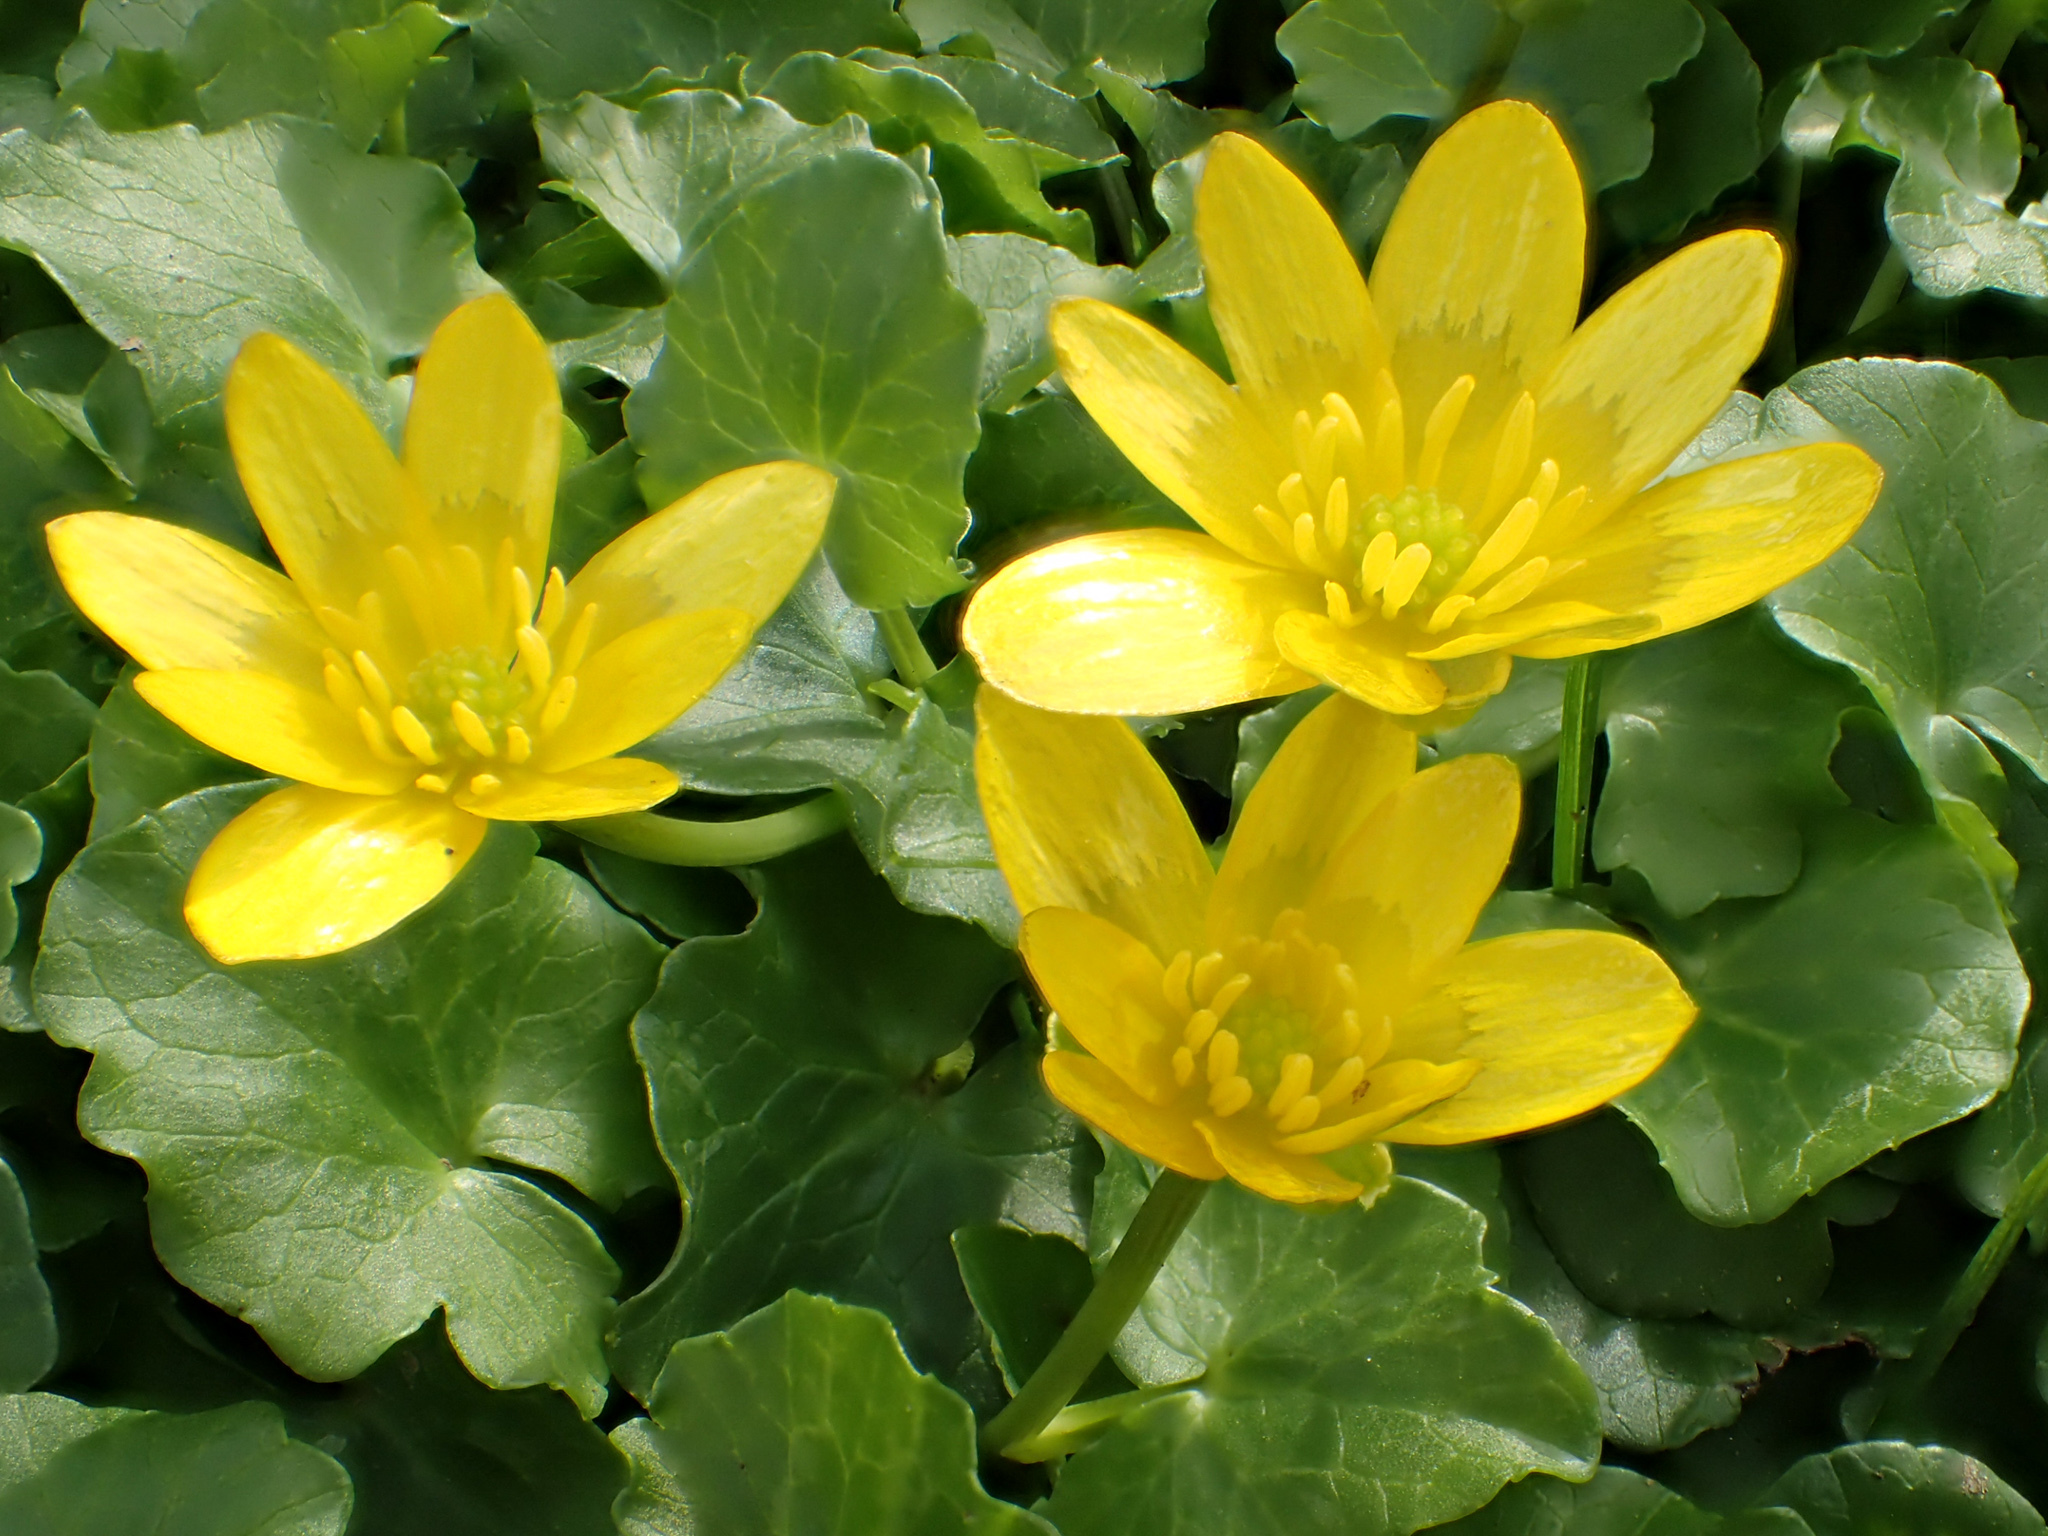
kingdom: Plantae
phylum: Tracheophyta
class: Magnoliopsida
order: Ranunculales
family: Ranunculaceae
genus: Ficaria
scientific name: Ficaria verna
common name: Lesser celandine
